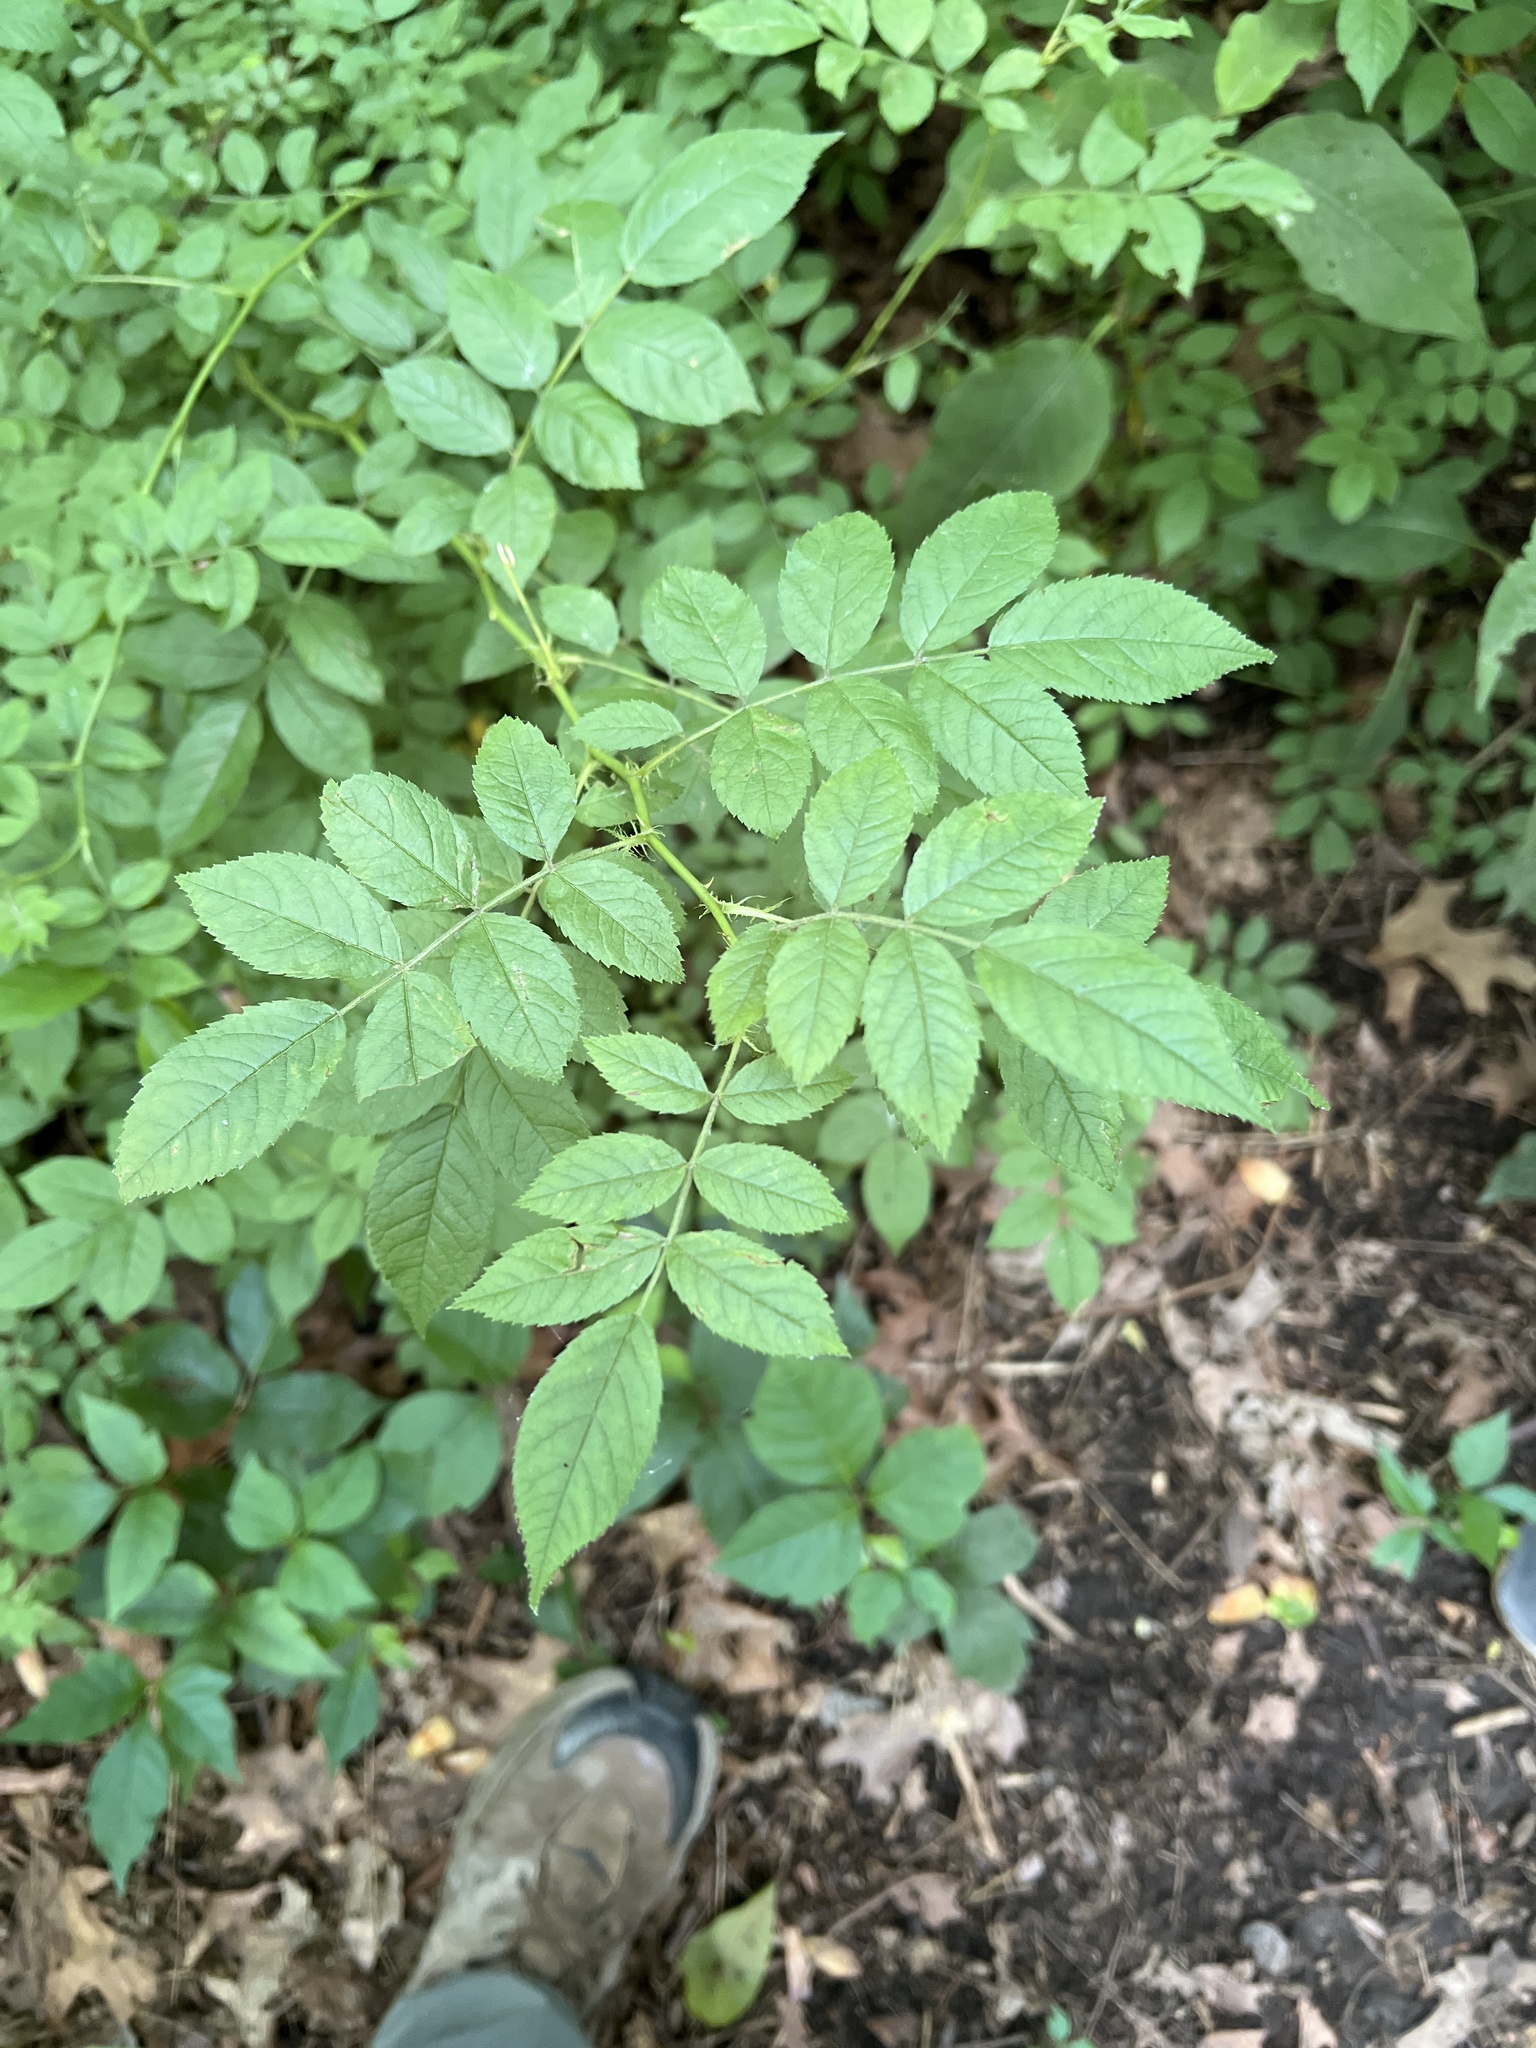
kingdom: Plantae
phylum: Tracheophyta
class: Magnoliopsida
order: Rosales
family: Rosaceae
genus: Rosa
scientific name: Rosa multiflora
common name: Multiflora rose
